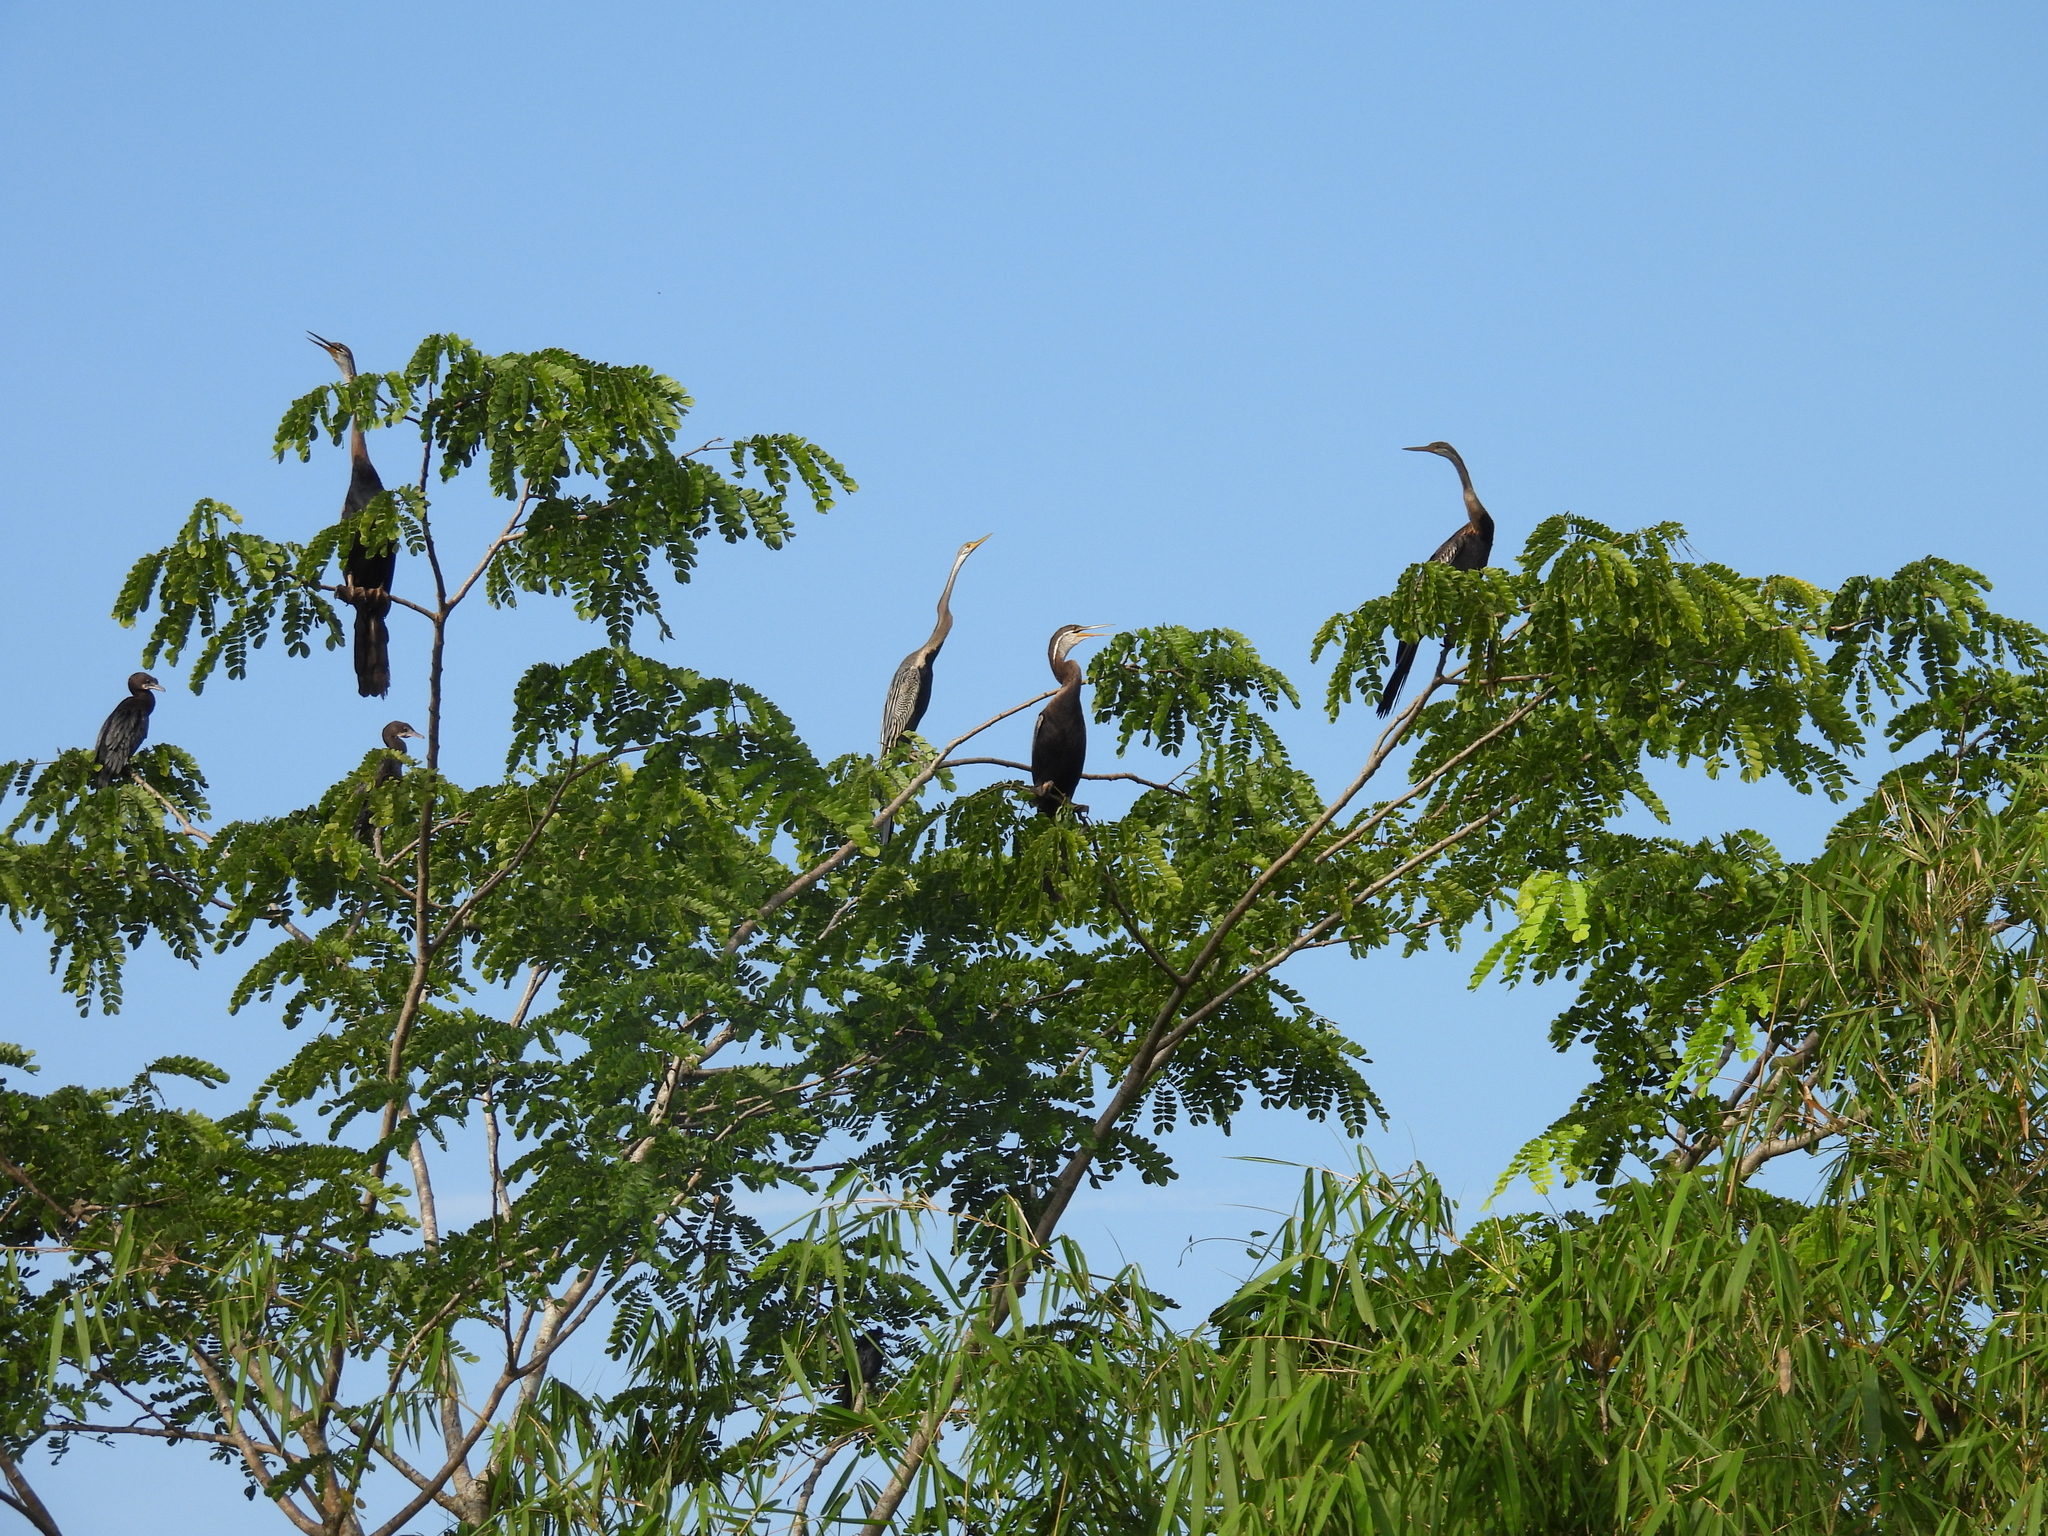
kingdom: Animalia
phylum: Chordata
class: Aves
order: Suliformes
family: Phalacrocoracidae
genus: Microcarbo
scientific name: Microcarbo niger
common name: Little cormorant
